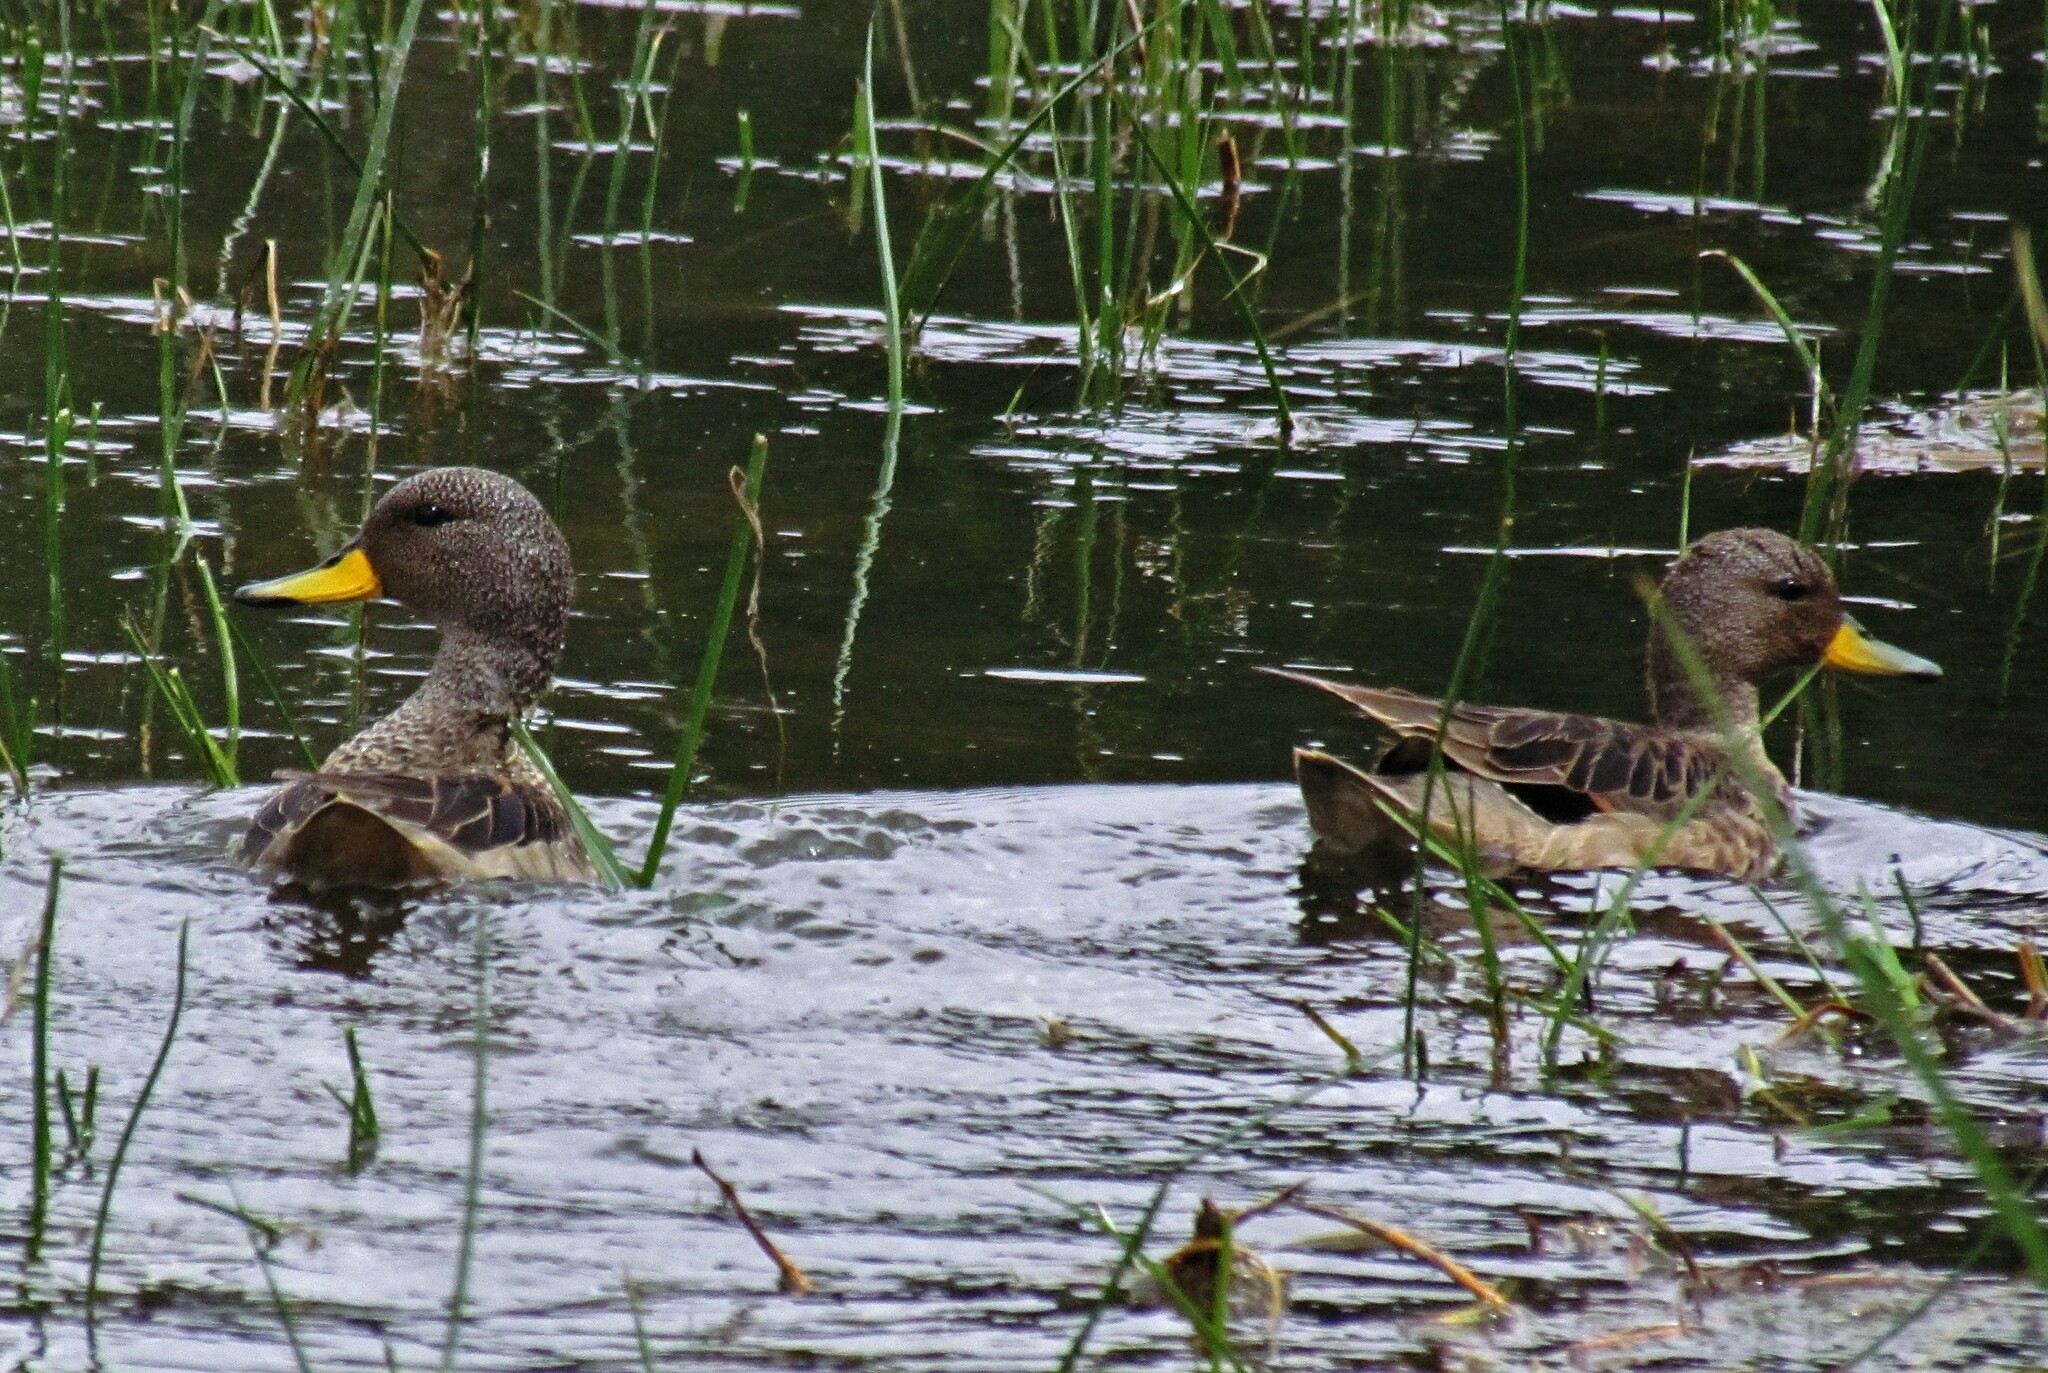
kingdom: Animalia
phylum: Chordata
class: Aves
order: Anseriformes
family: Anatidae
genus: Anas
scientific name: Anas flavirostris
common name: Yellow-billed teal
